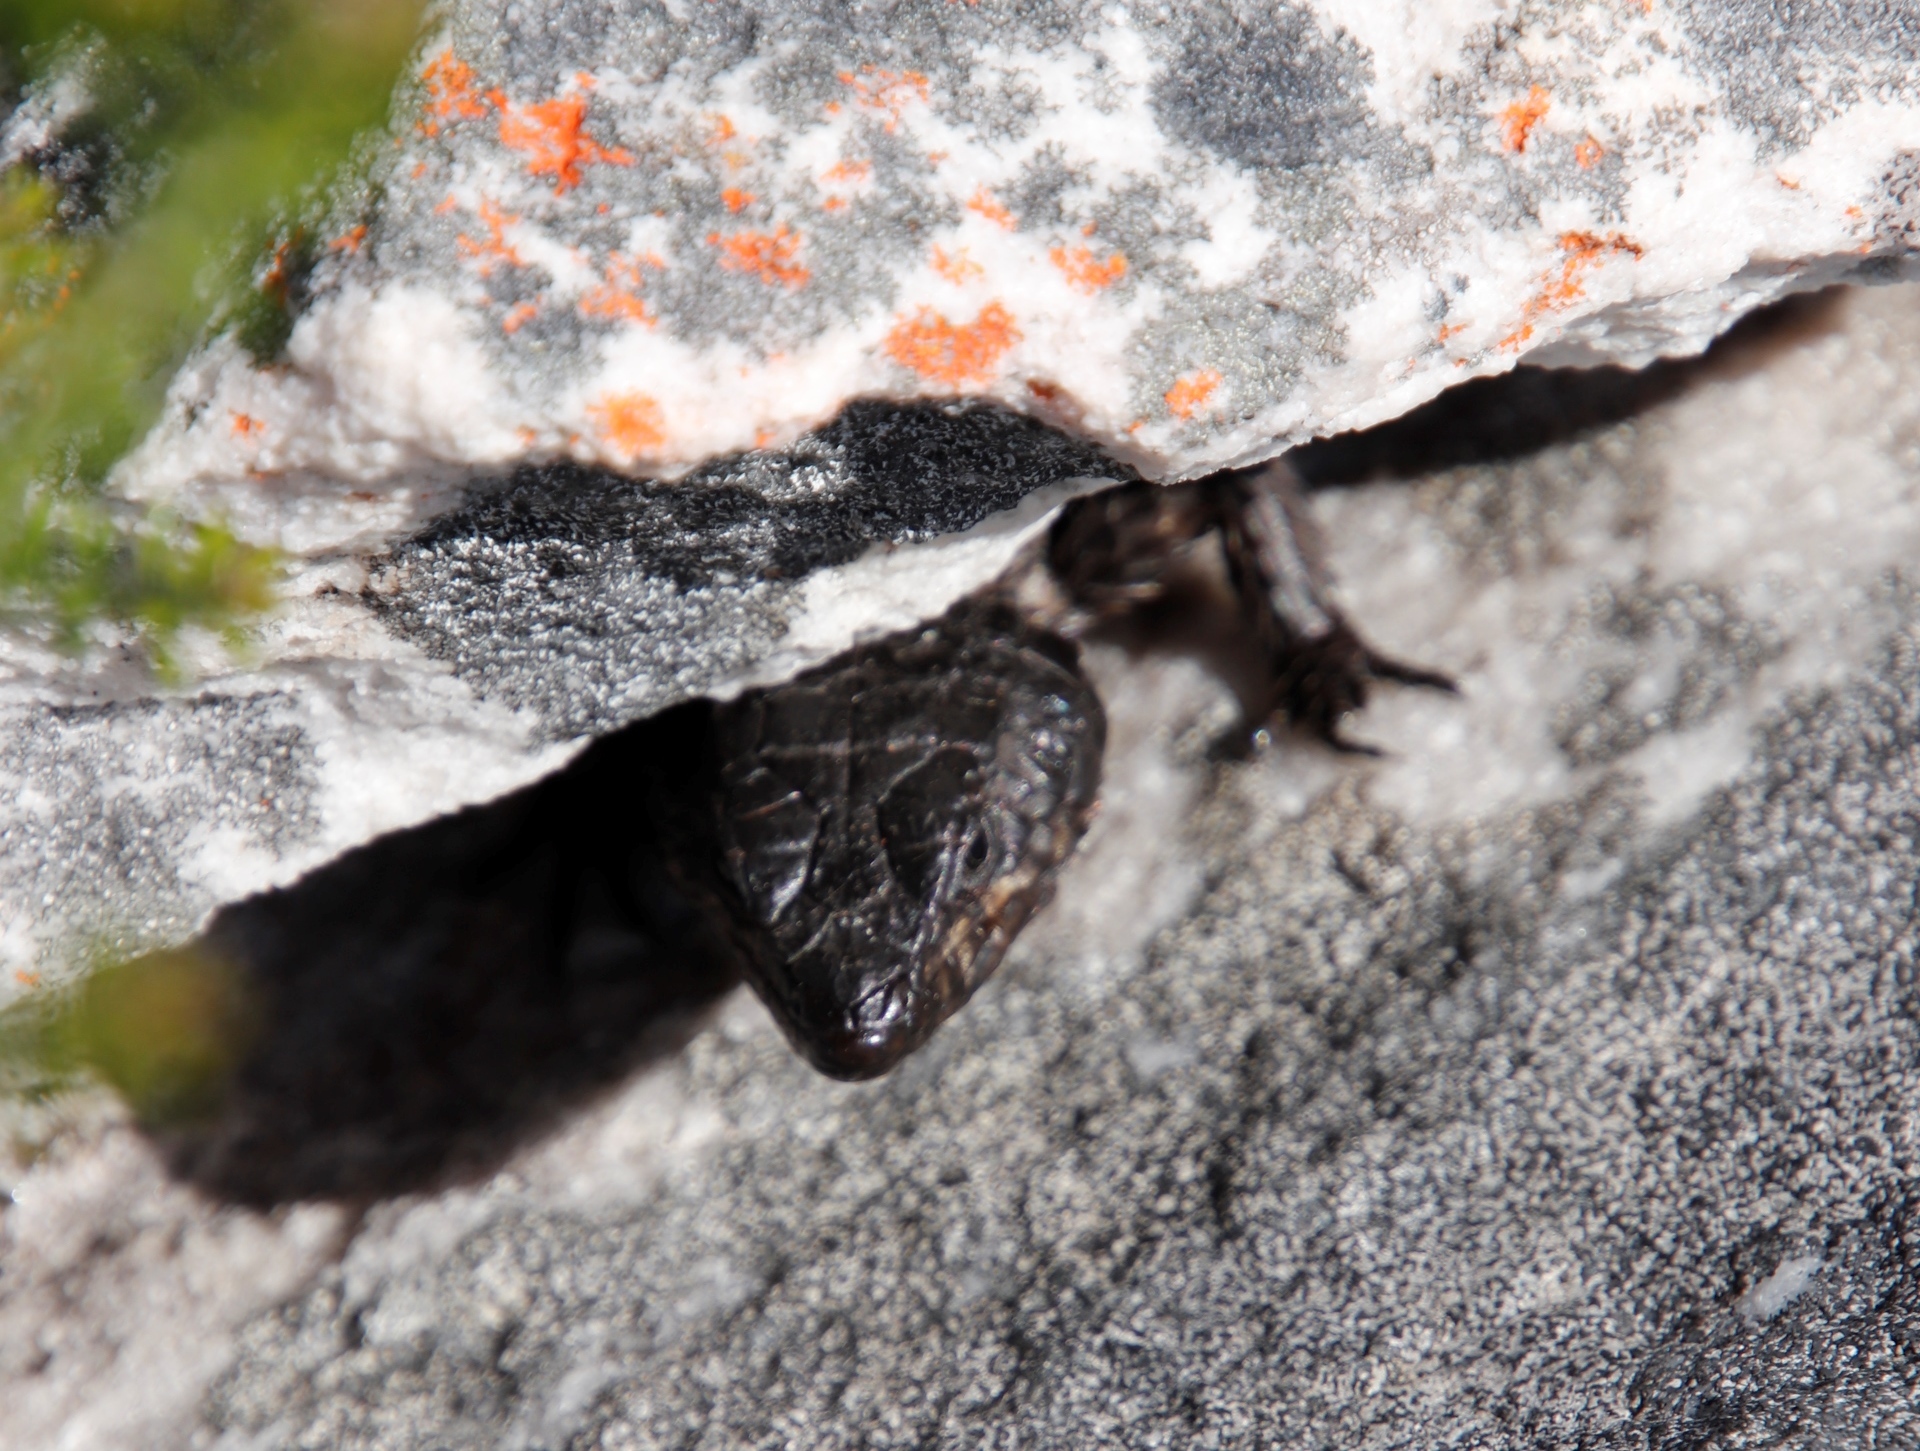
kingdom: Animalia
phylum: Chordata
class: Squamata
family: Cordylidae
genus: Cordylus
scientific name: Cordylus niger
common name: Black girdled lizard
